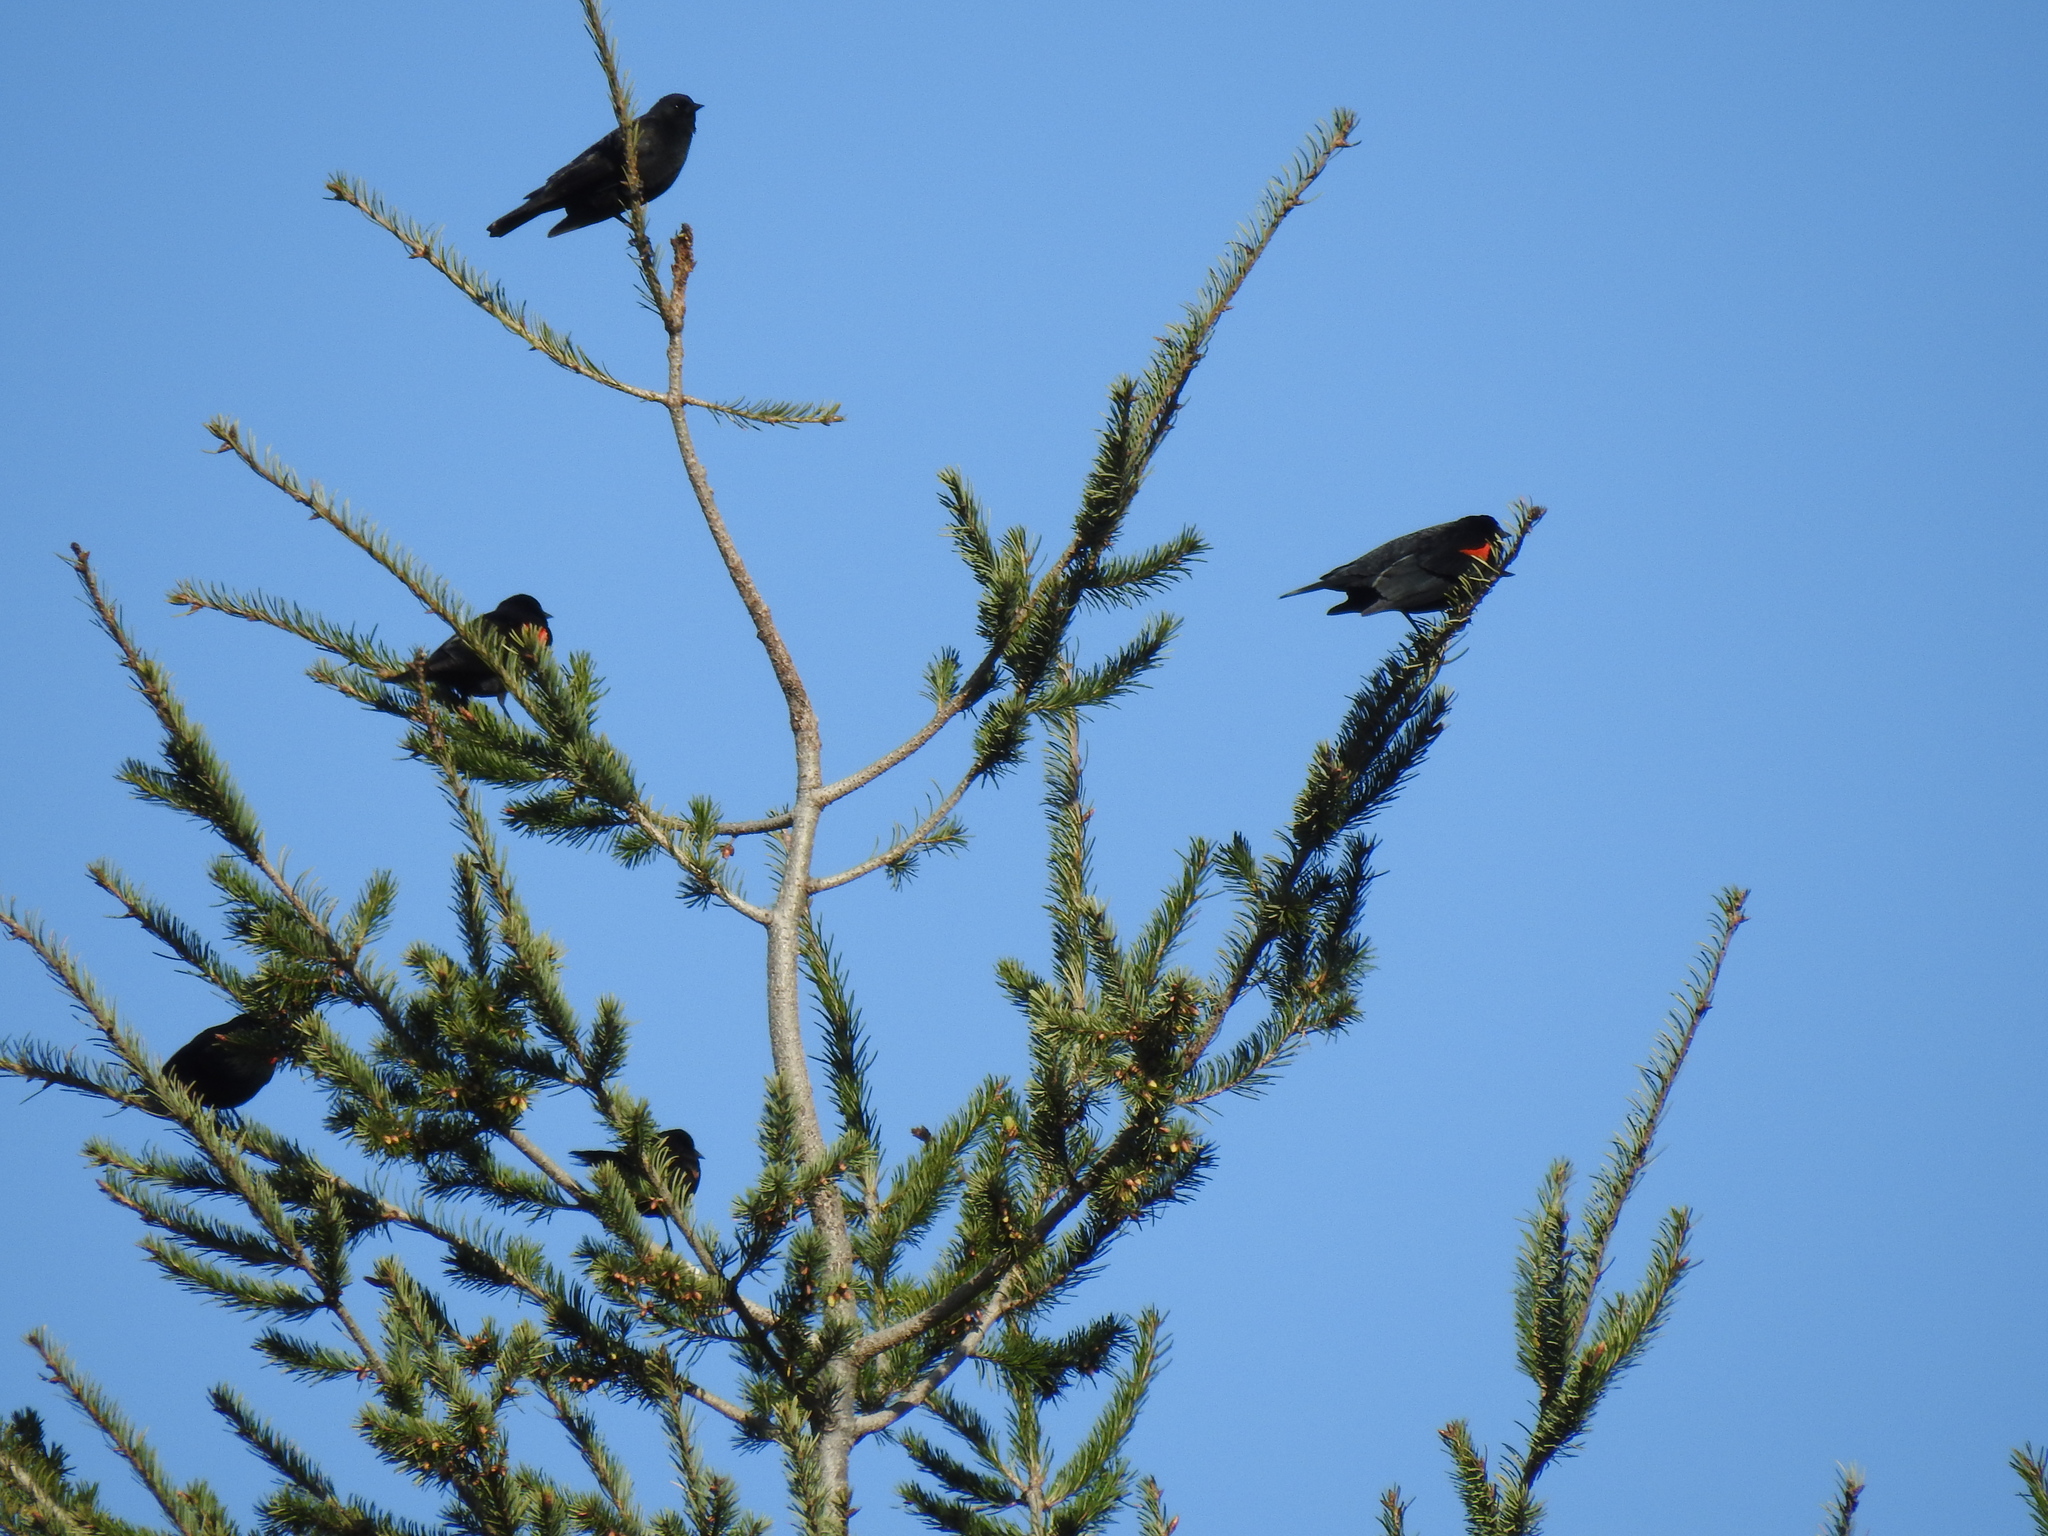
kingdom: Animalia
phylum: Chordata
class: Aves
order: Passeriformes
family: Icteridae
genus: Agelaius
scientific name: Agelaius phoeniceus
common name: Red-winged blackbird
